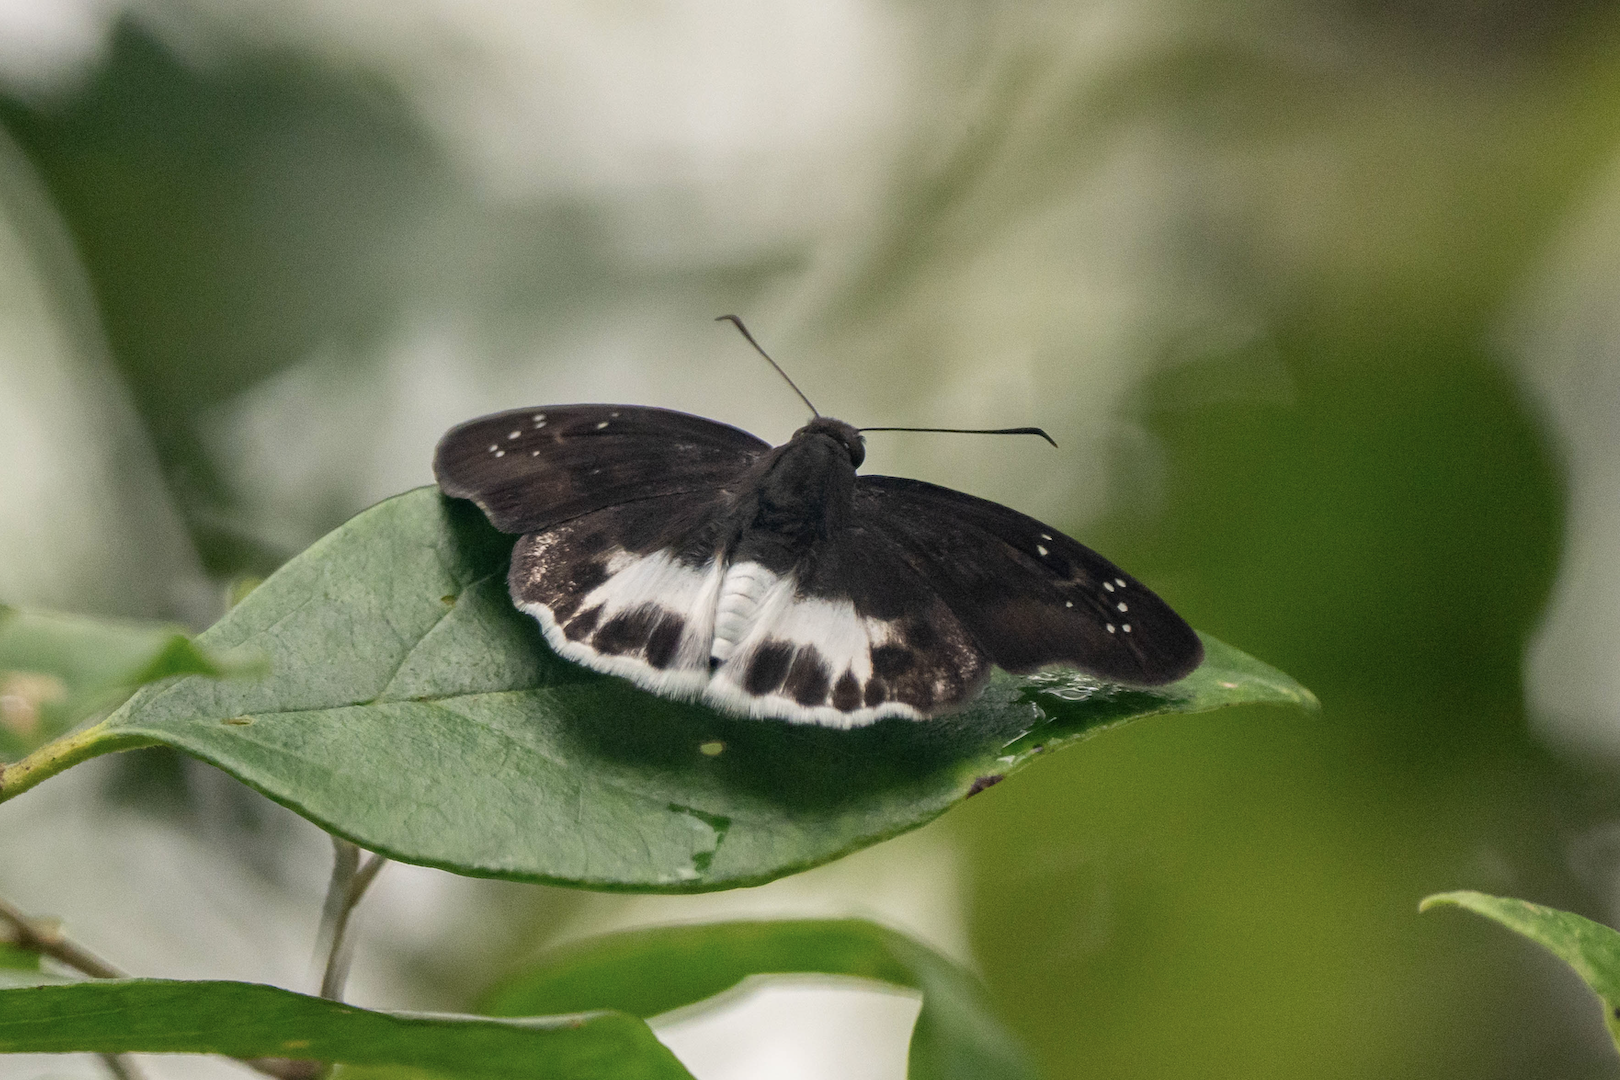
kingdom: Animalia
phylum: Arthropoda
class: Insecta
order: Lepidoptera
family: Hesperiidae
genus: Tagiades
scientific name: Tagiades litigiosa
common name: Water snow flat
